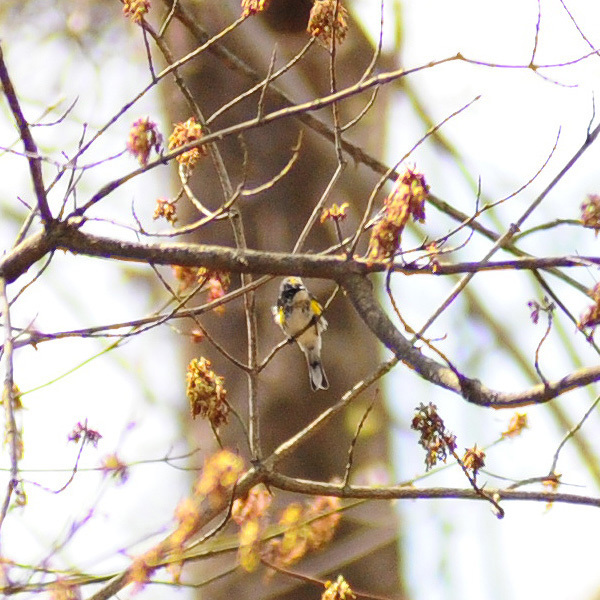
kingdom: Animalia
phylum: Chordata
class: Aves
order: Passeriformes
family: Parulidae
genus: Setophaga
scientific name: Setophaga coronata
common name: Myrtle warbler
